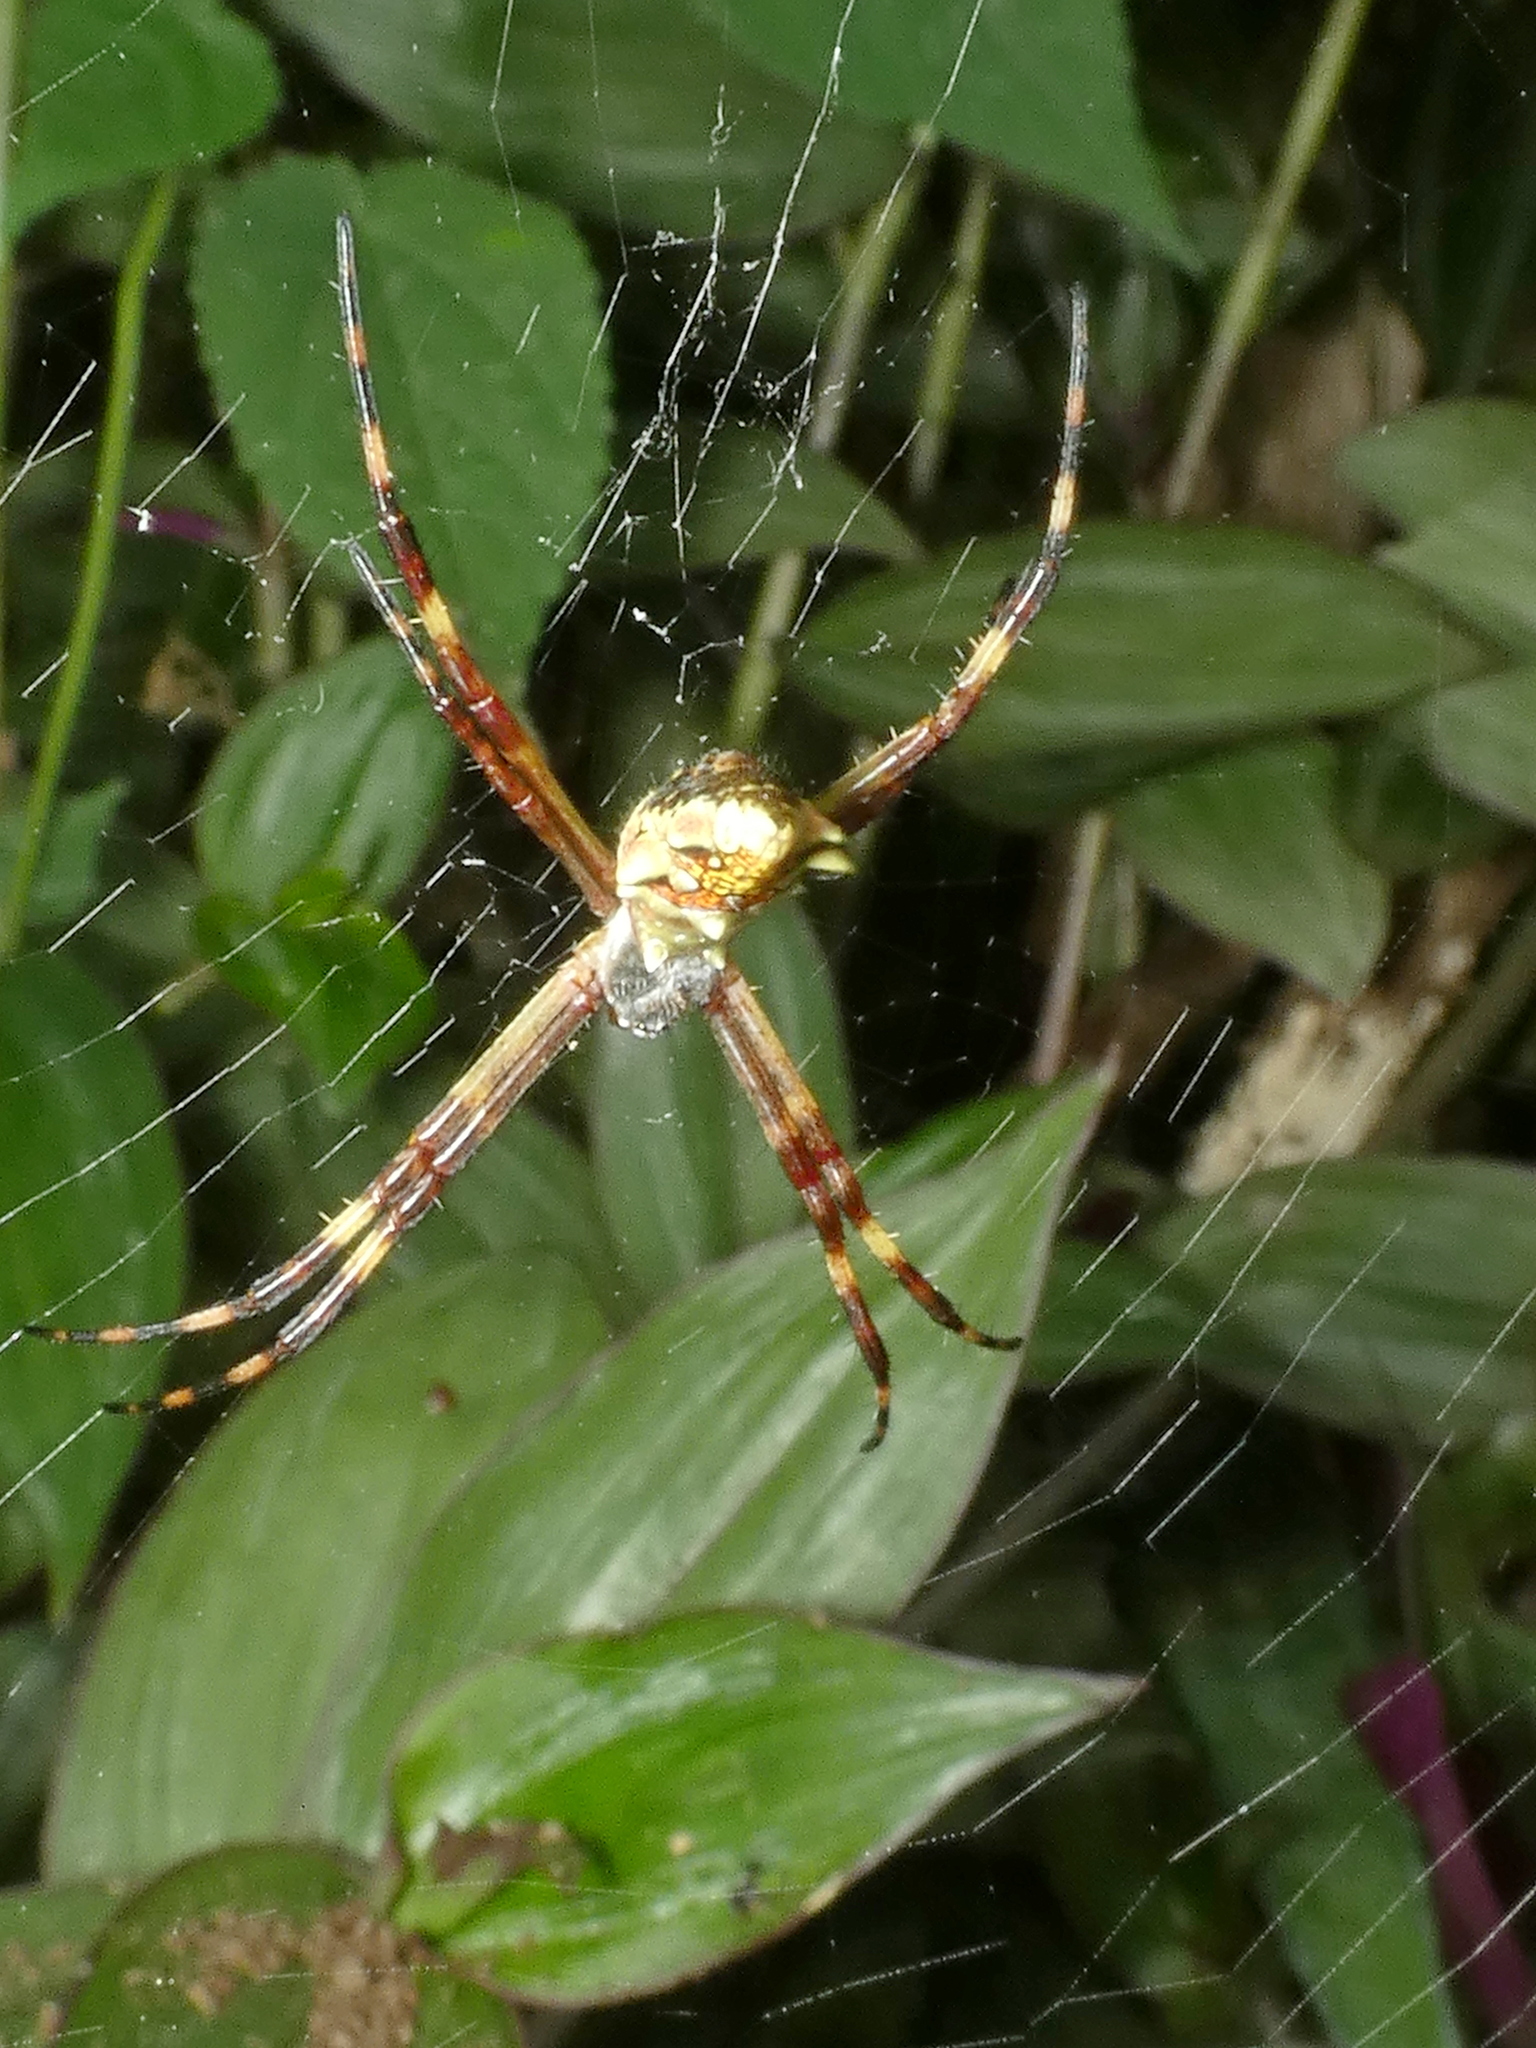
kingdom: Animalia
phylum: Arthropoda
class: Arachnida
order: Araneae
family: Araneidae
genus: Argiope
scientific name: Argiope argentata
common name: Orb weavers
